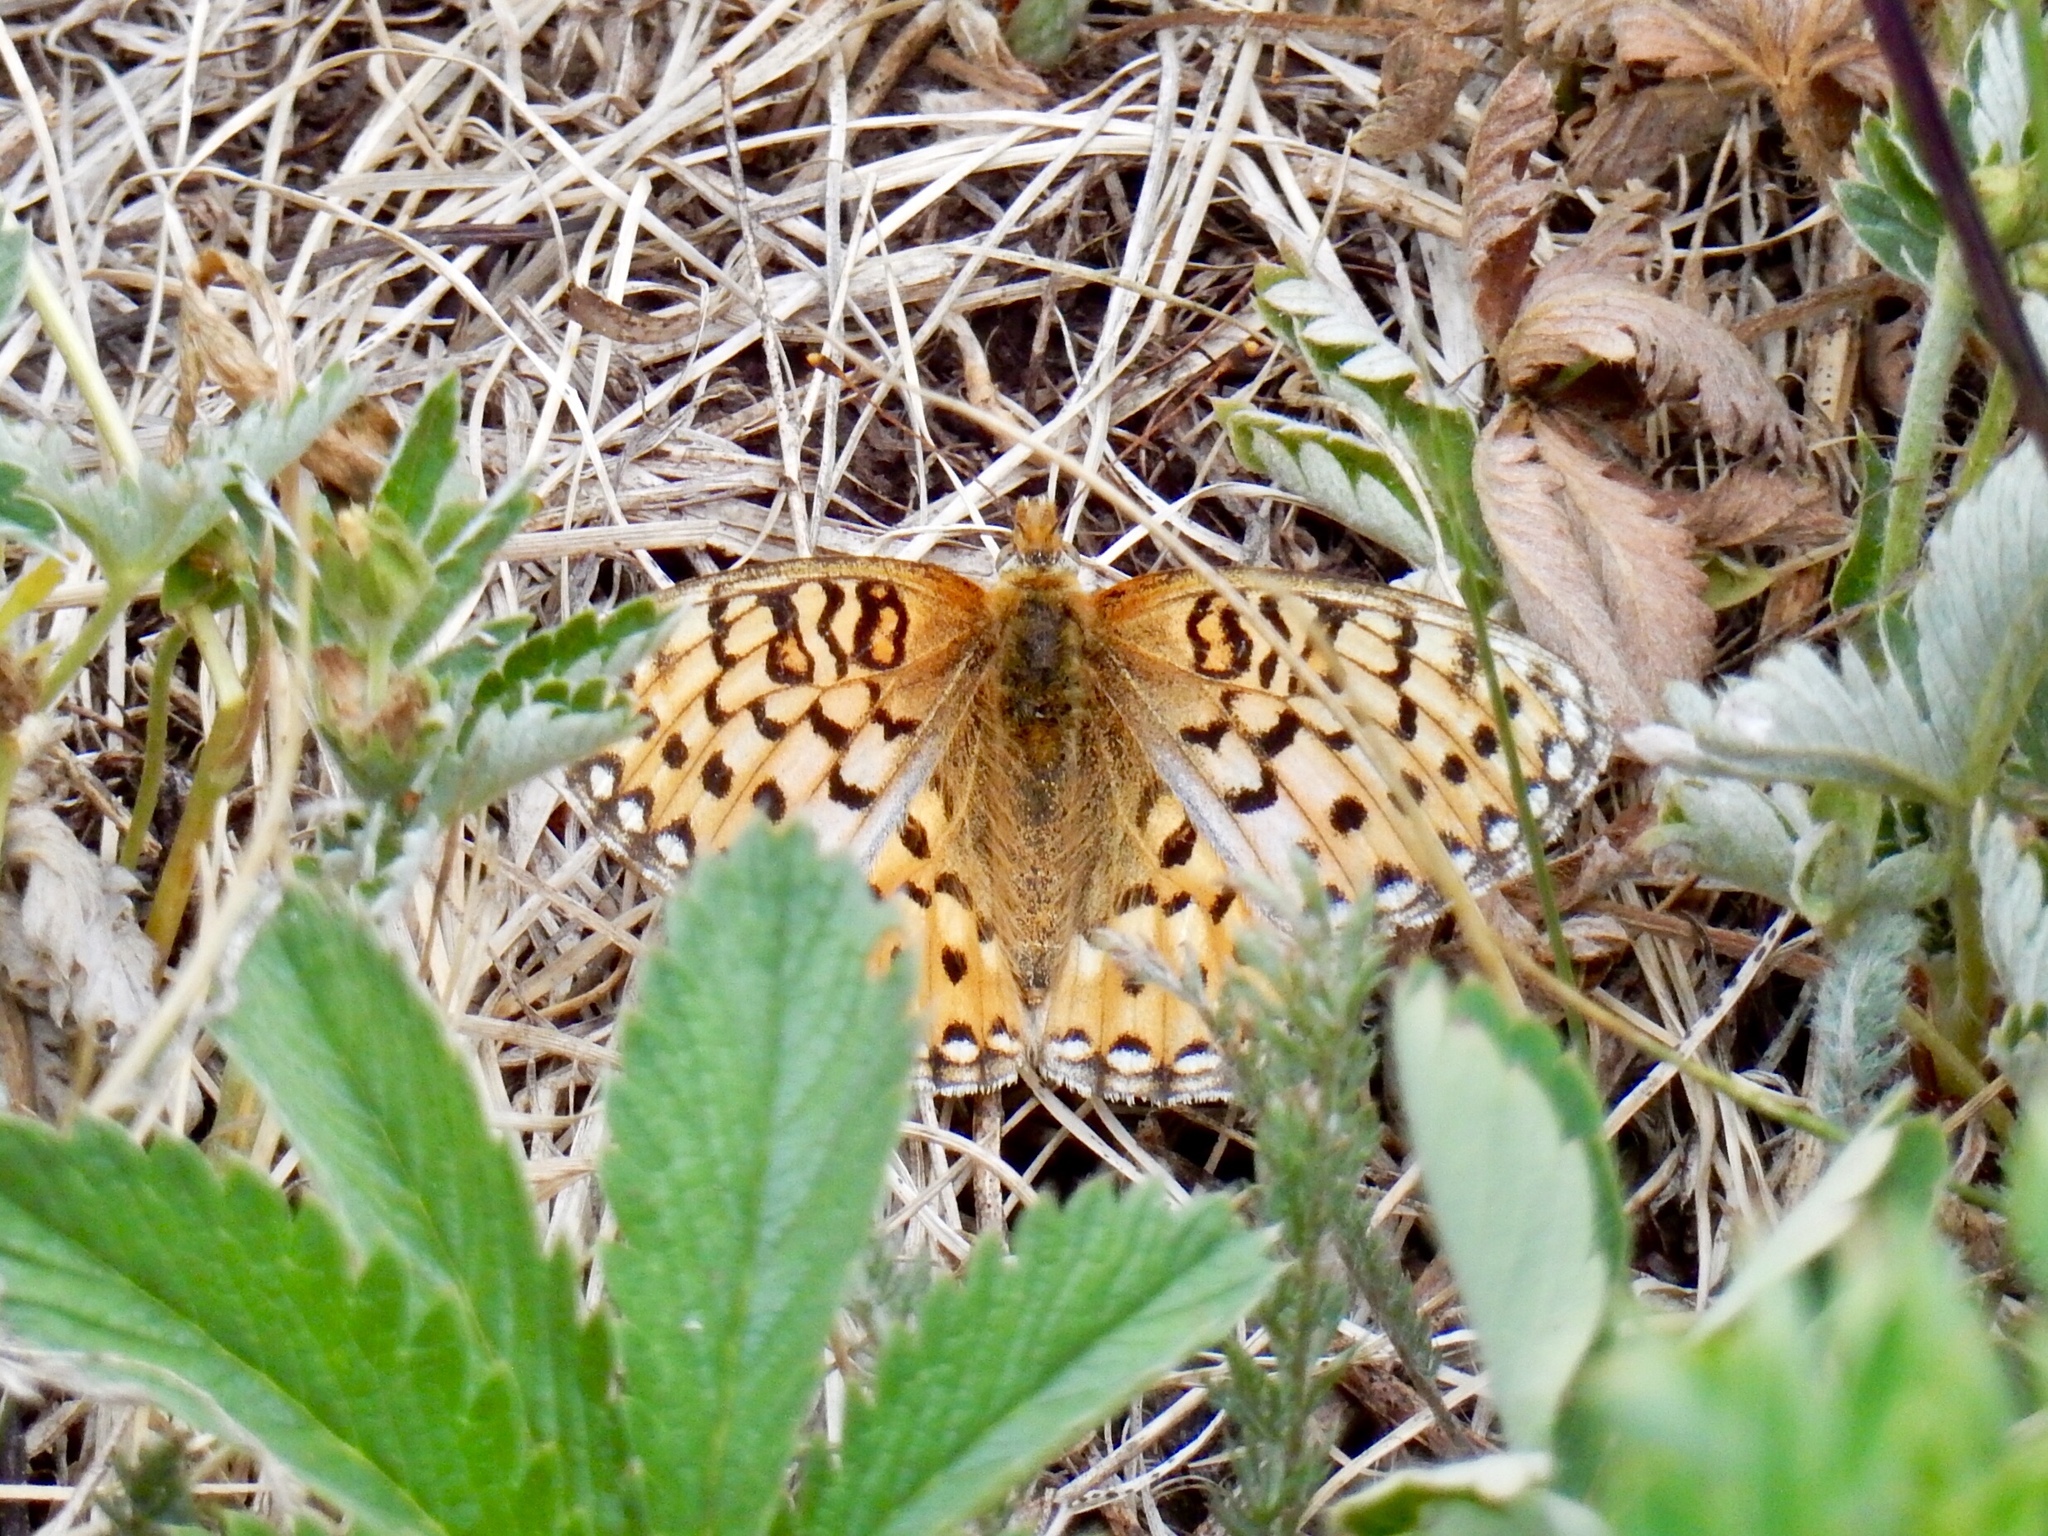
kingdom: Animalia
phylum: Arthropoda
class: Insecta
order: Lepidoptera
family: Nymphalidae
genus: Speyeria
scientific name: Speyeria callippe
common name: Callippe fritillary
